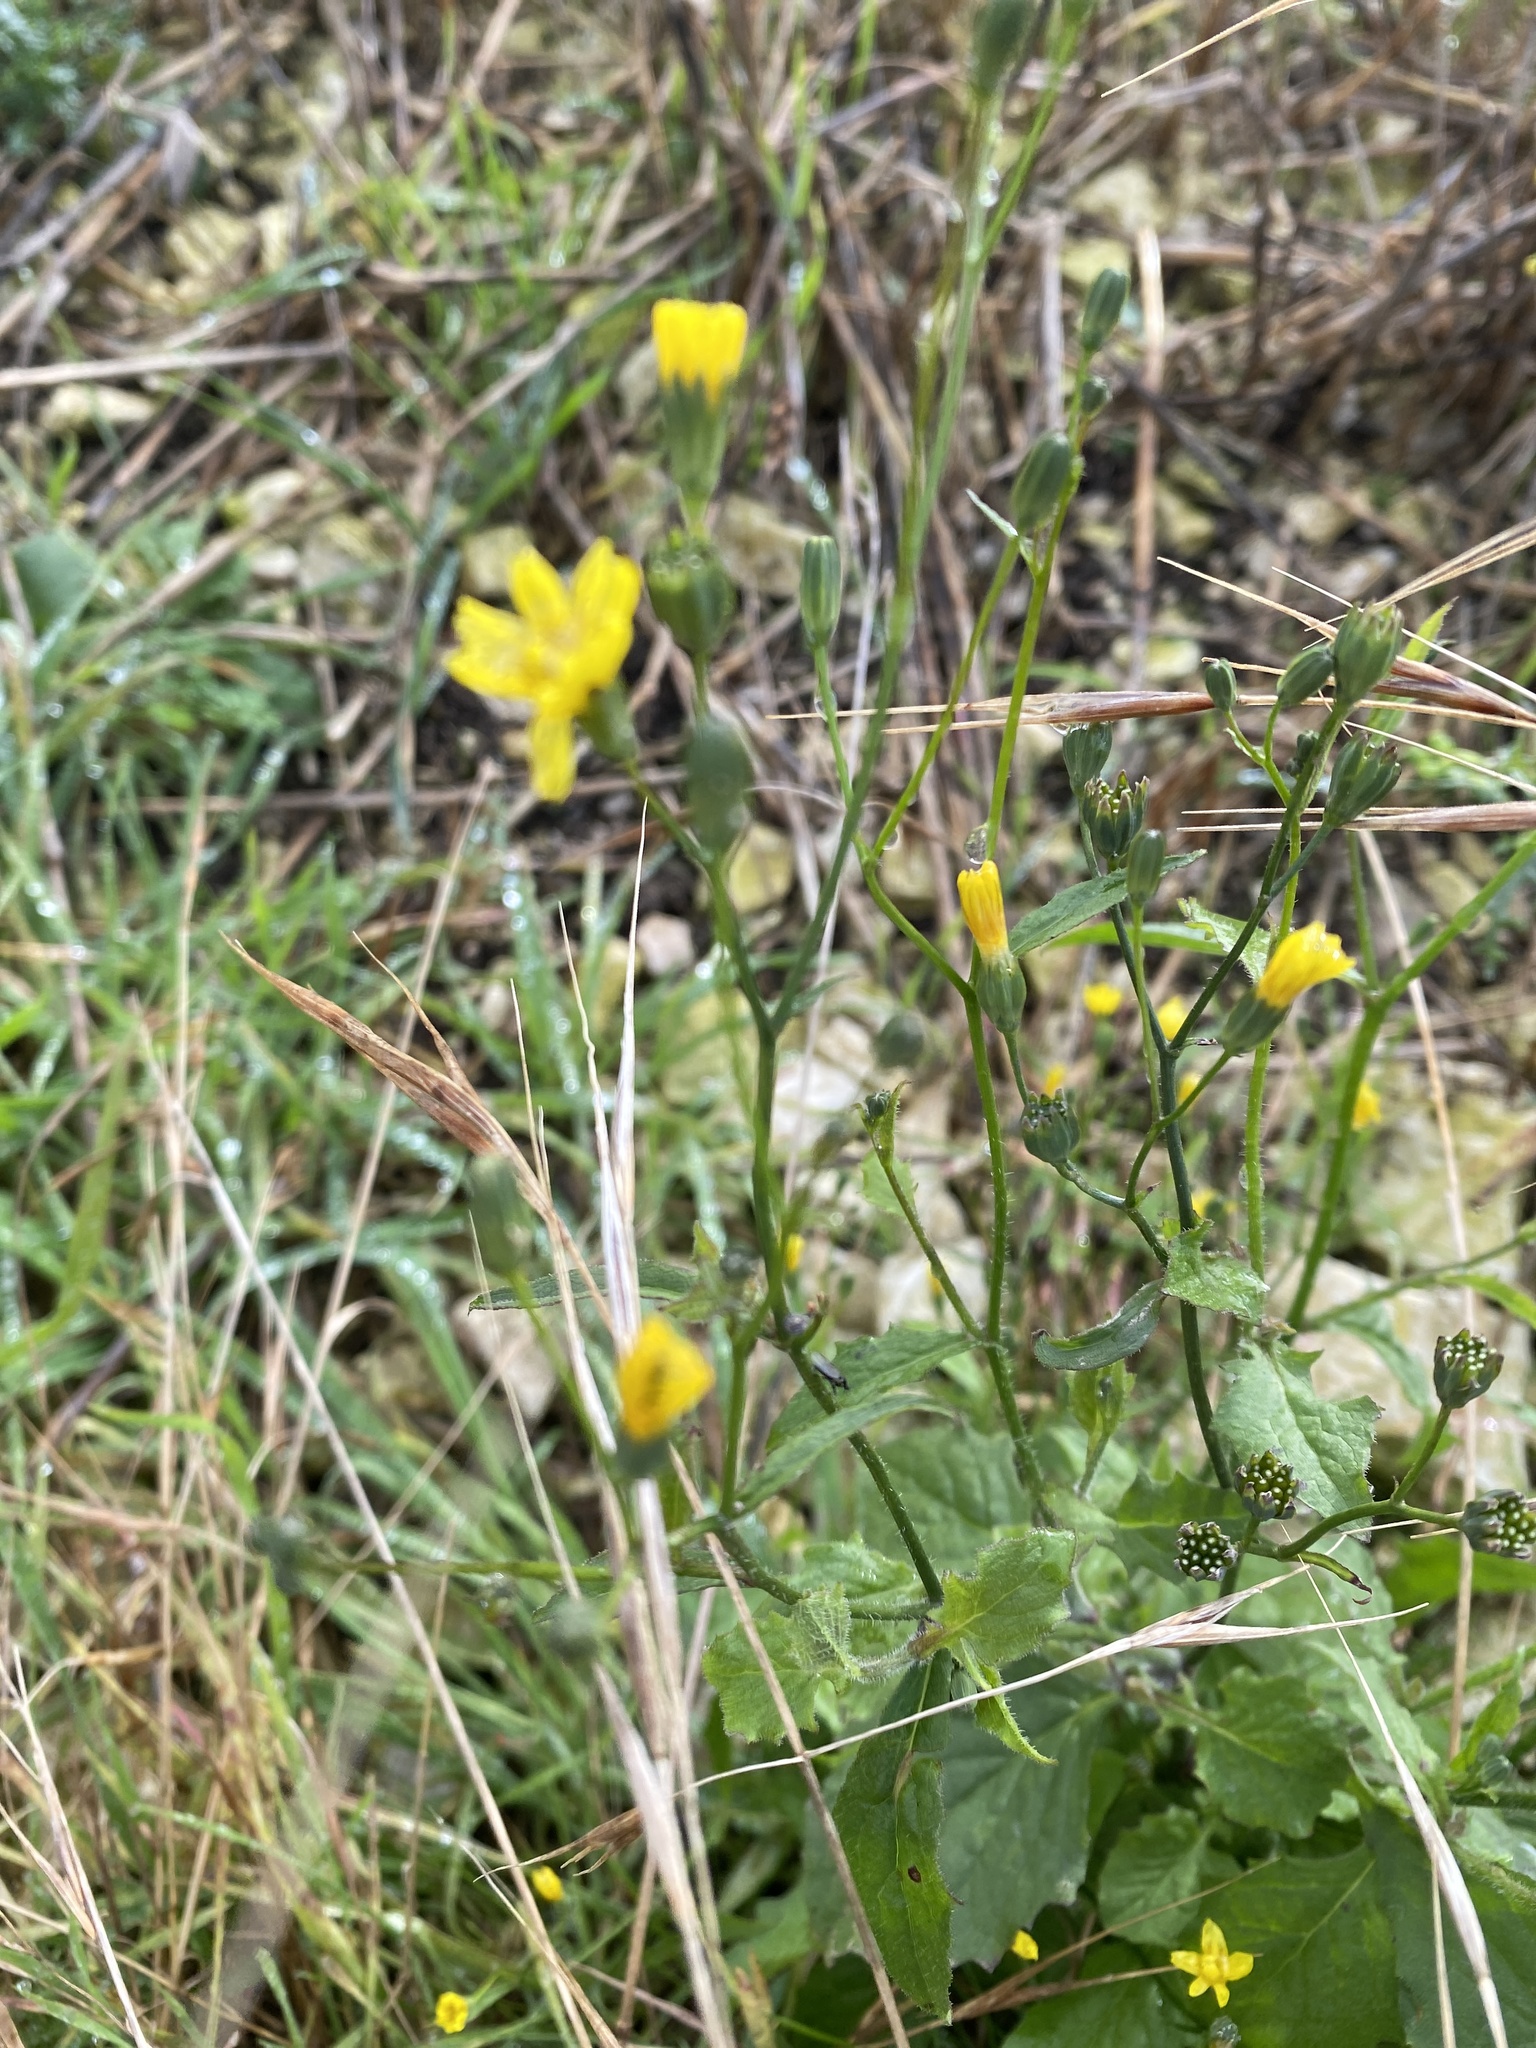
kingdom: Plantae
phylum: Tracheophyta
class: Magnoliopsida
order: Asterales
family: Asteraceae
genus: Lapsana
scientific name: Lapsana communis
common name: Nipplewort
